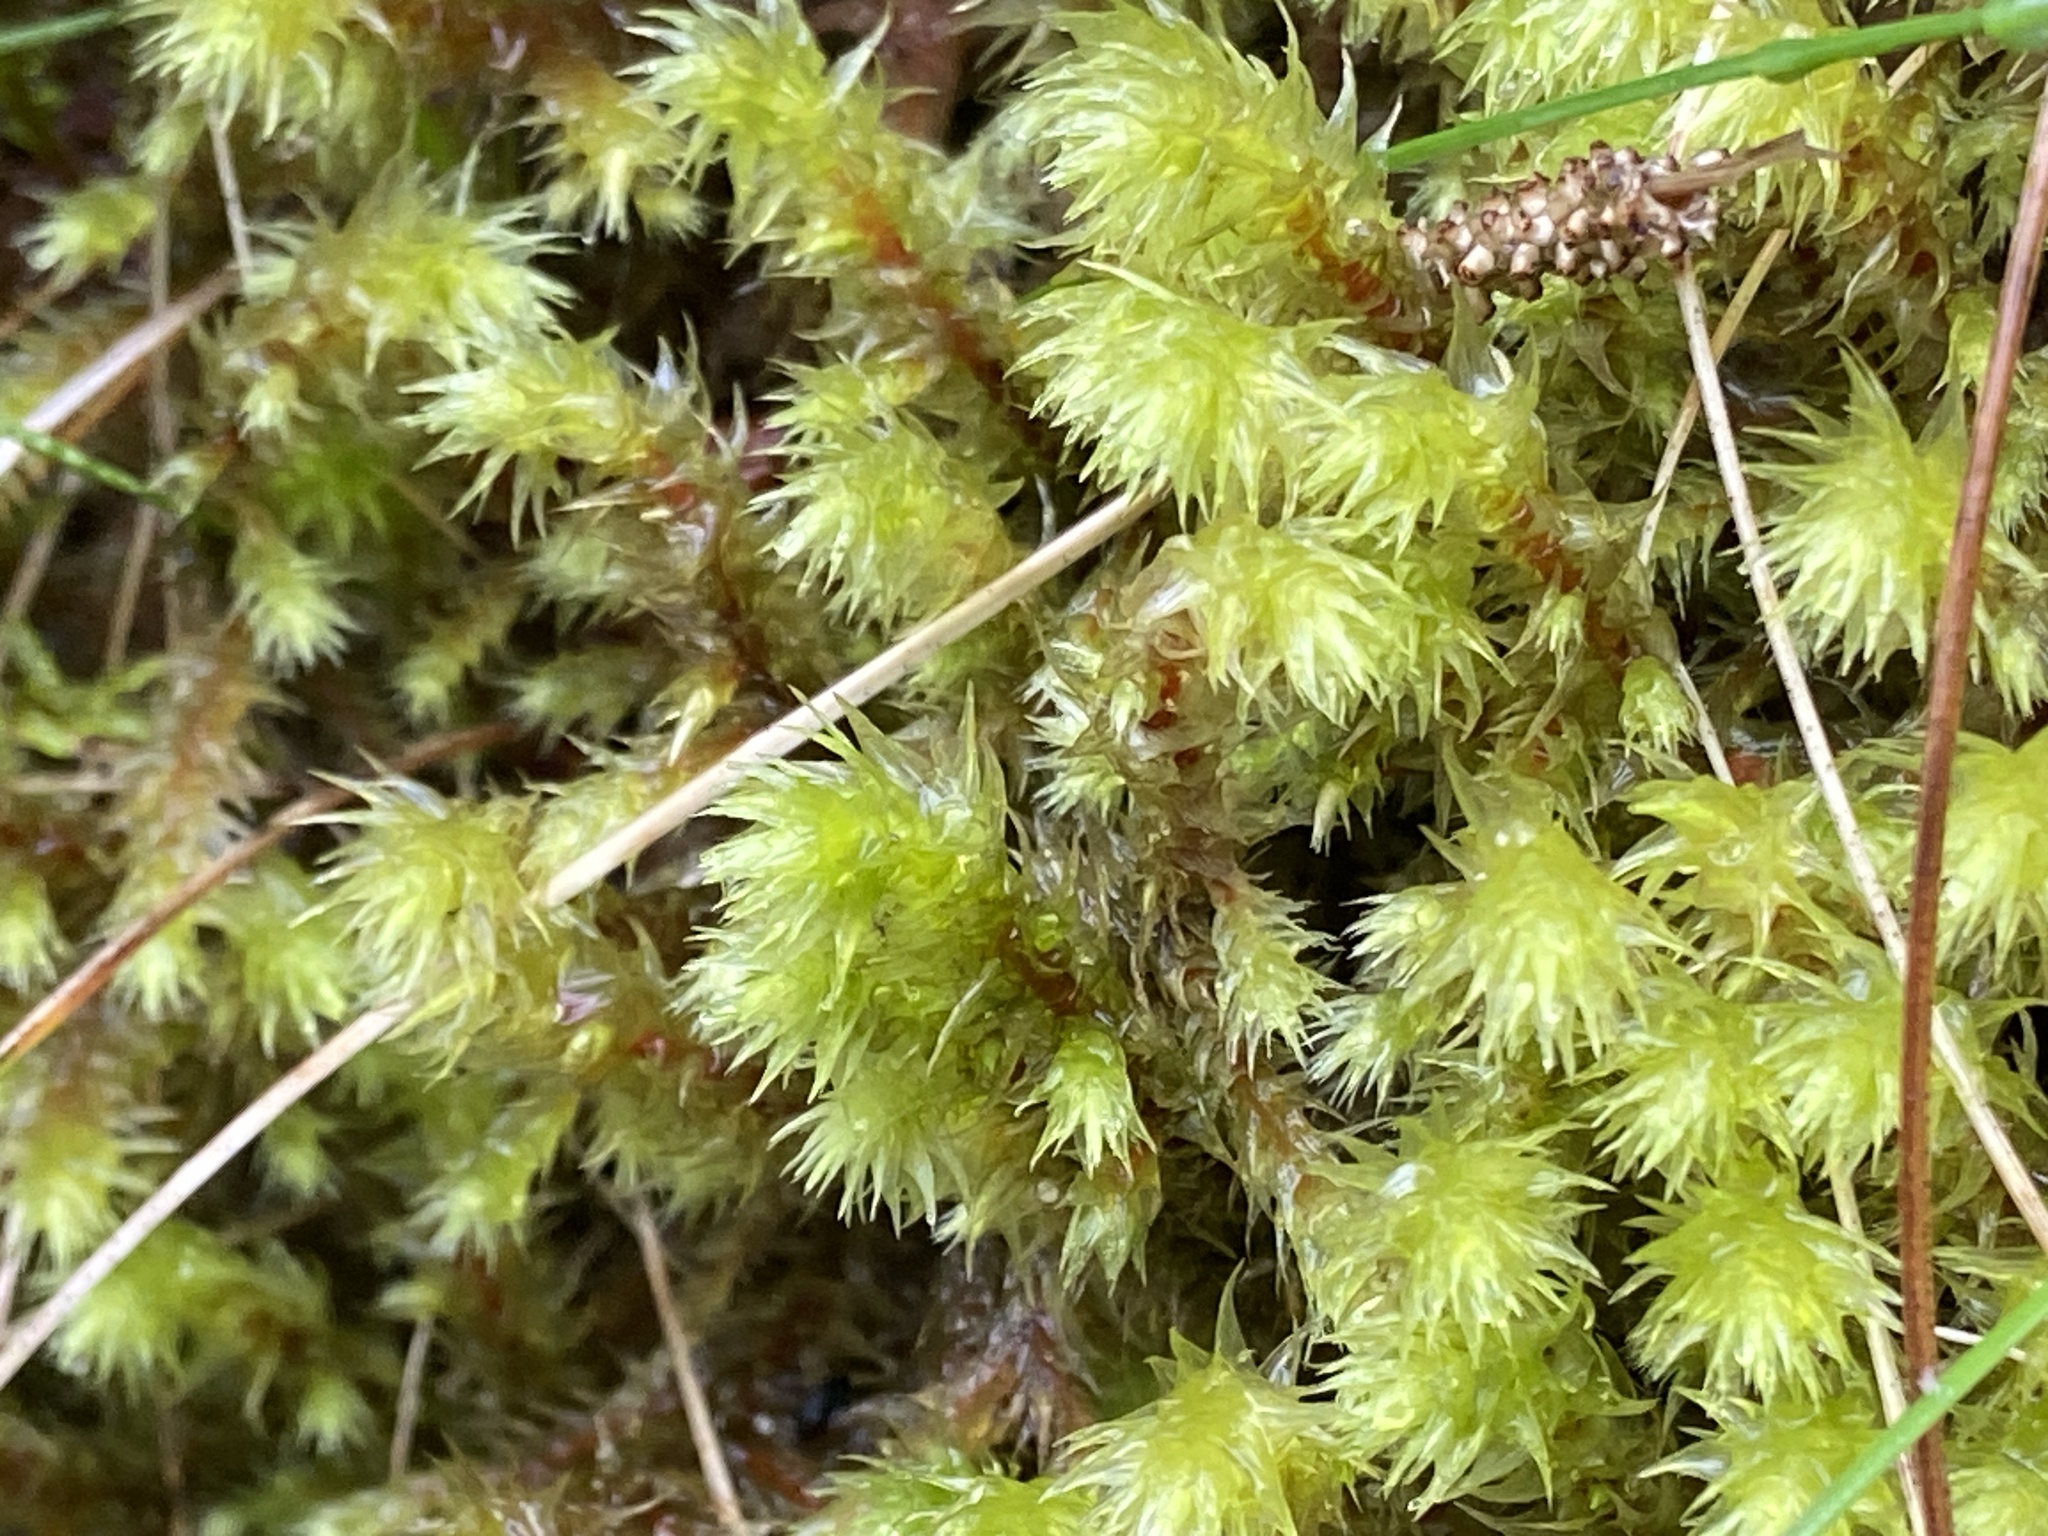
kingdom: Plantae
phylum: Bryophyta
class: Bryopsida
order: Hypnales
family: Hylocomiaceae
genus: Hylocomiadelphus
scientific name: Hylocomiadelphus triquetrus
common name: Rough goose neck moss
